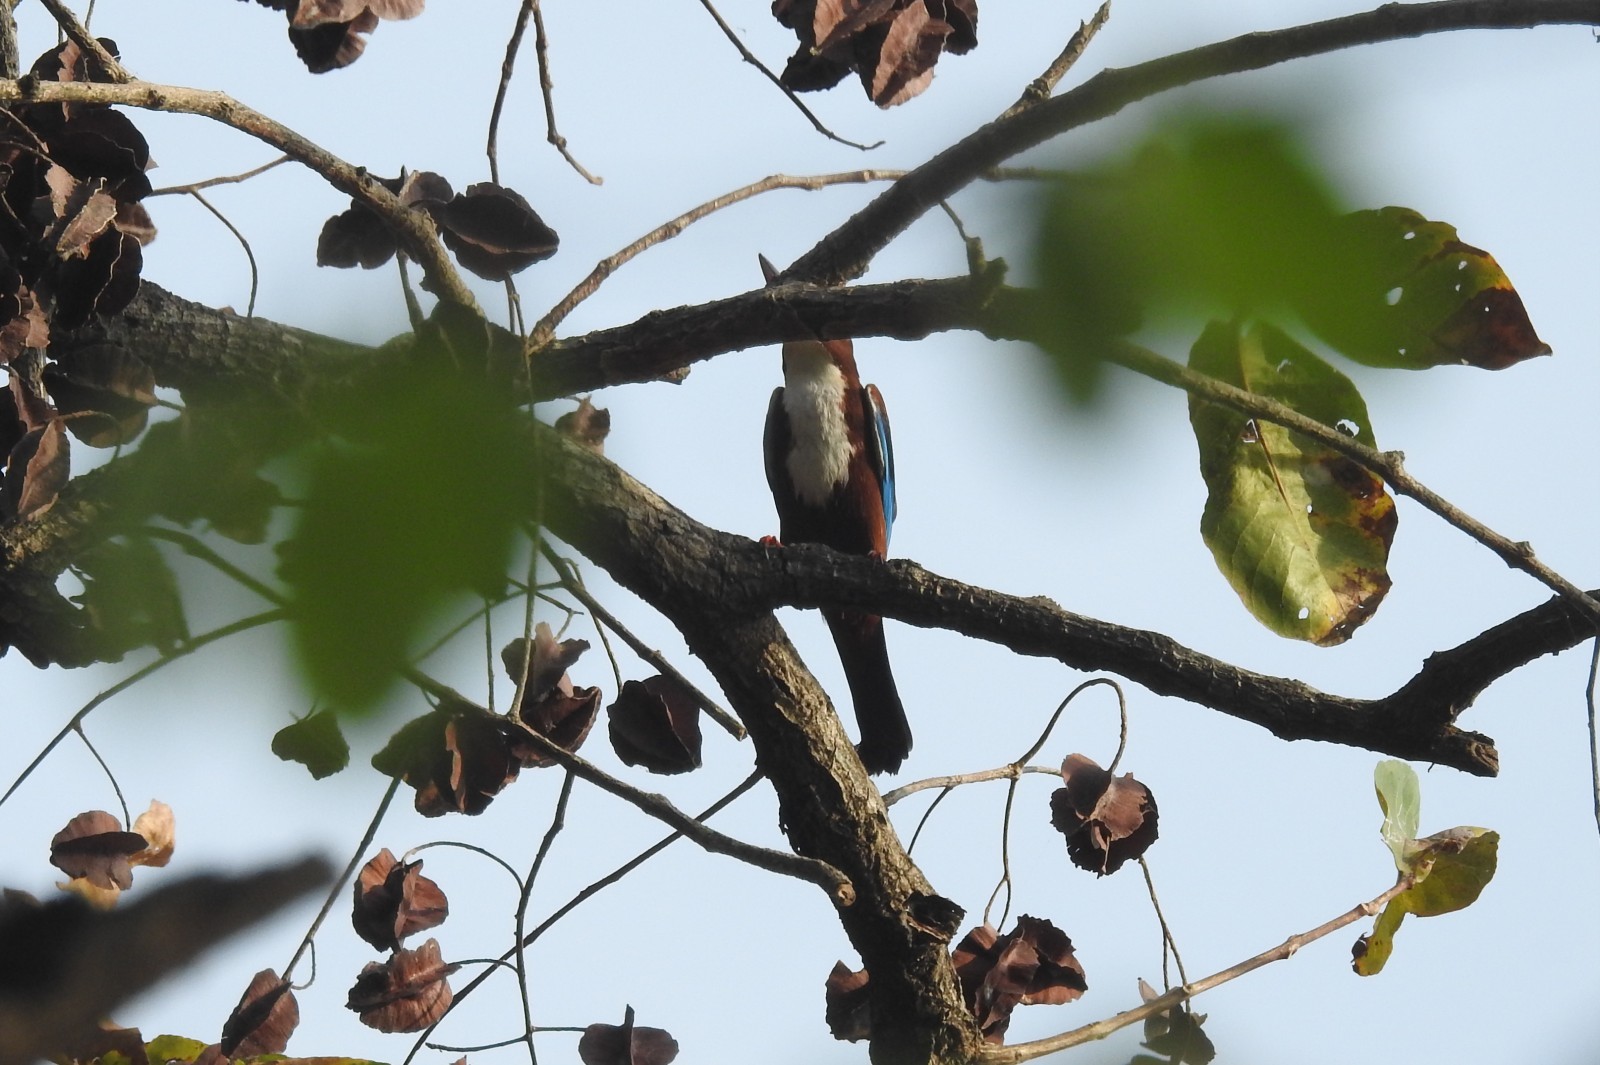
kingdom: Animalia
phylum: Chordata
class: Aves
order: Coraciiformes
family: Alcedinidae
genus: Halcyon
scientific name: Halcyon smyrnensis
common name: White-throated kingfisher
